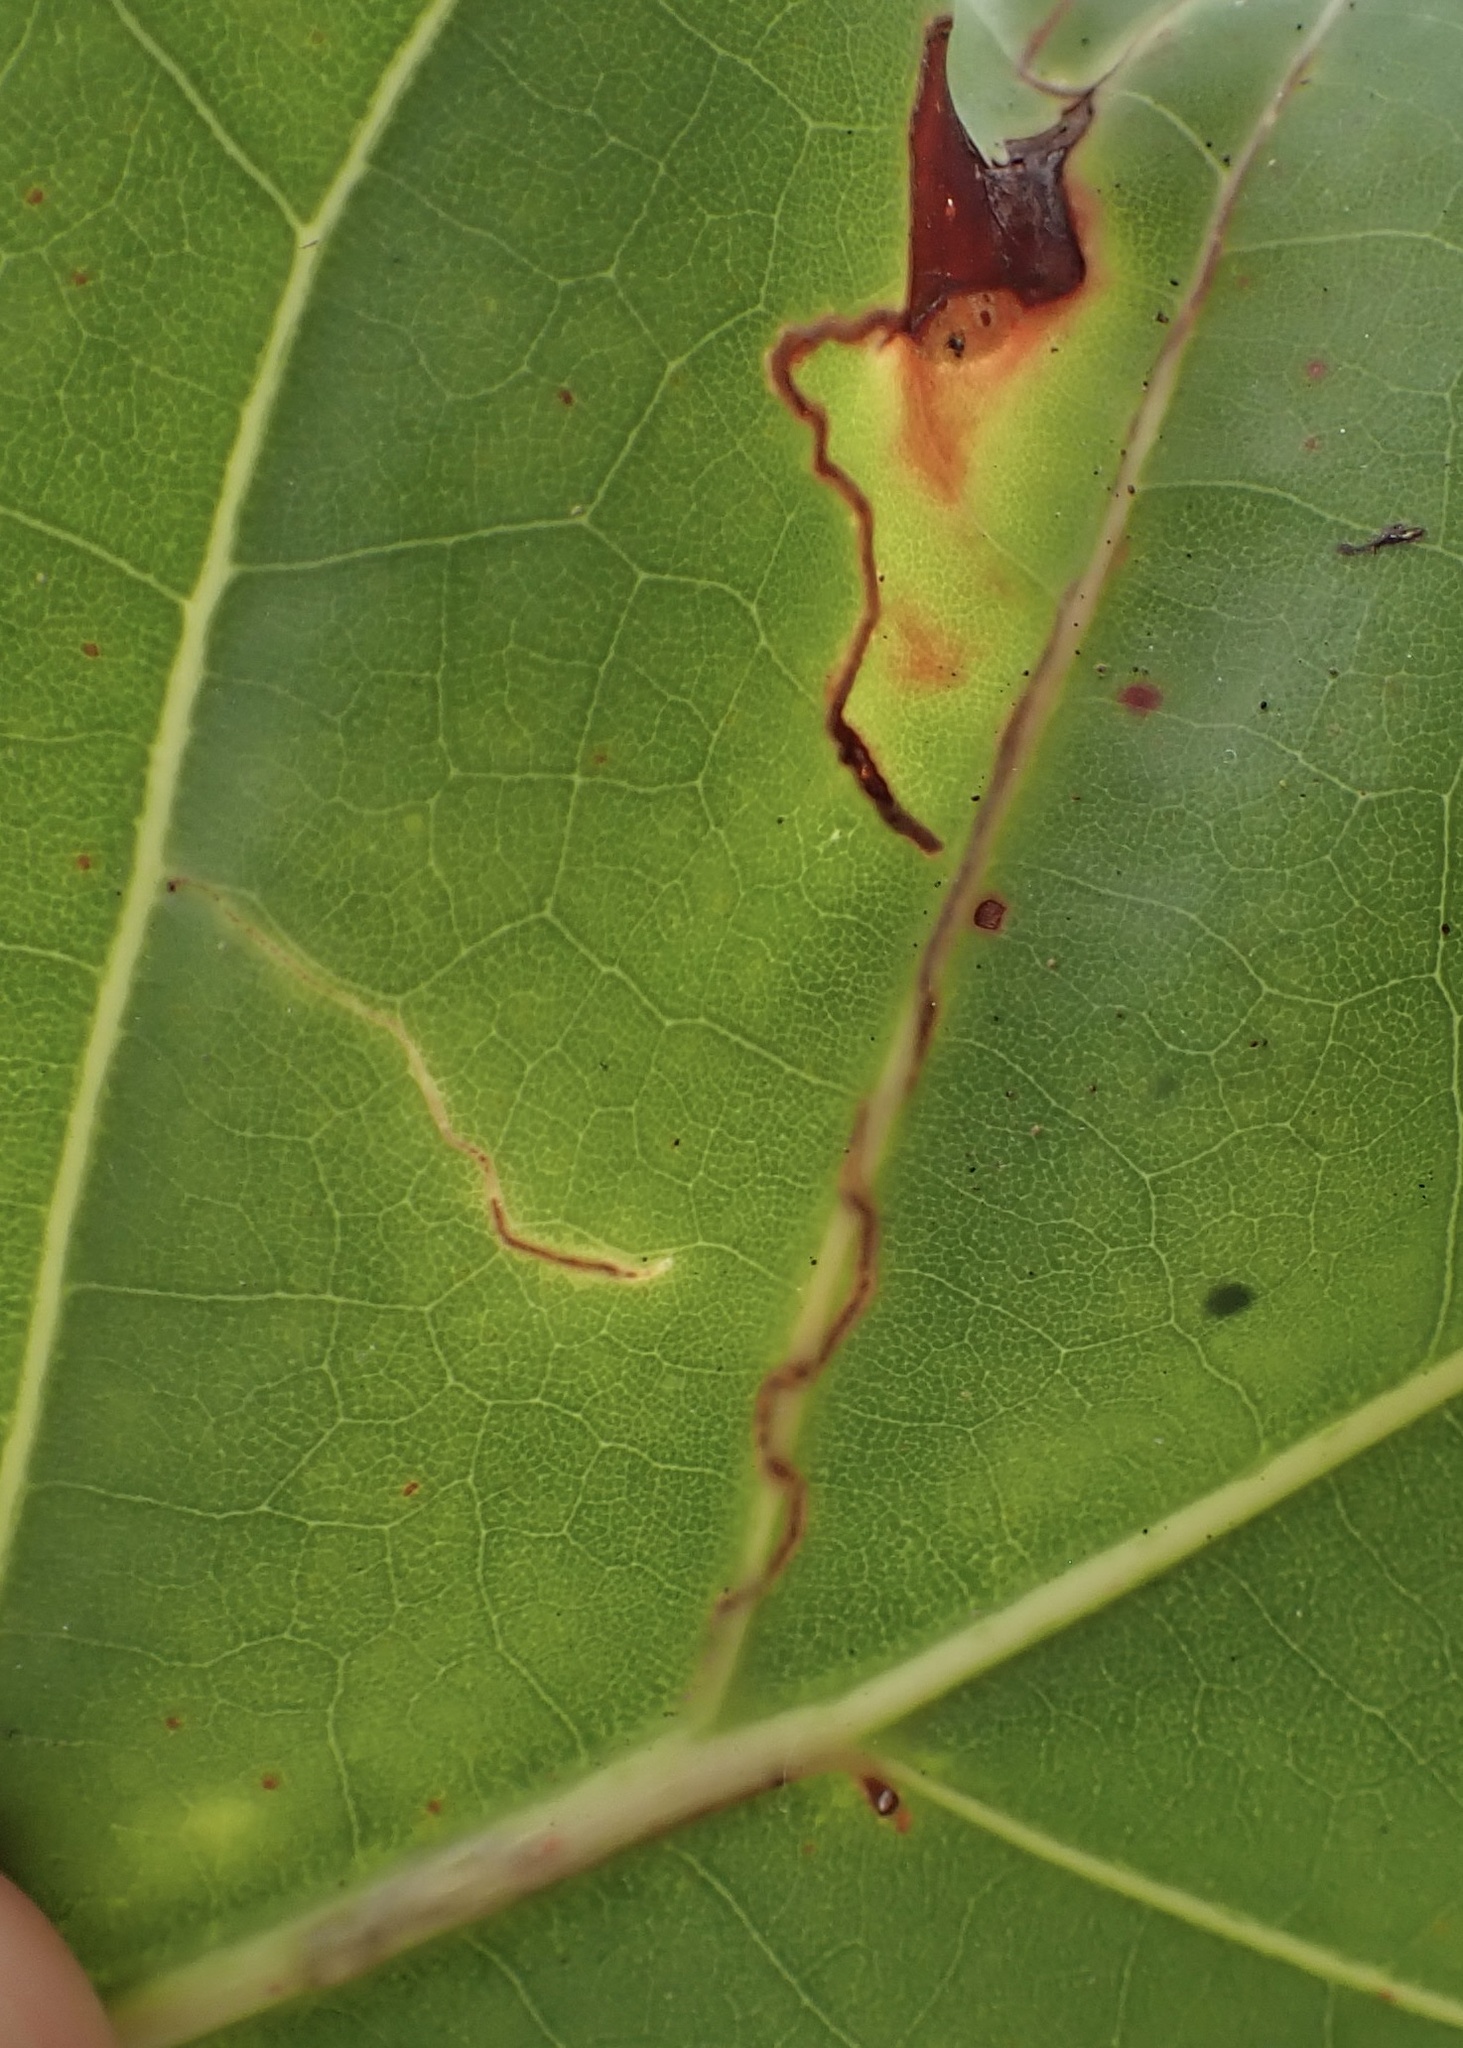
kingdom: Animalia
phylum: Arthropoda
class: Insecta
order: Lepidoptera
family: Nepticulidae
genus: Enteucha
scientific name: Enteucha basidactyla
